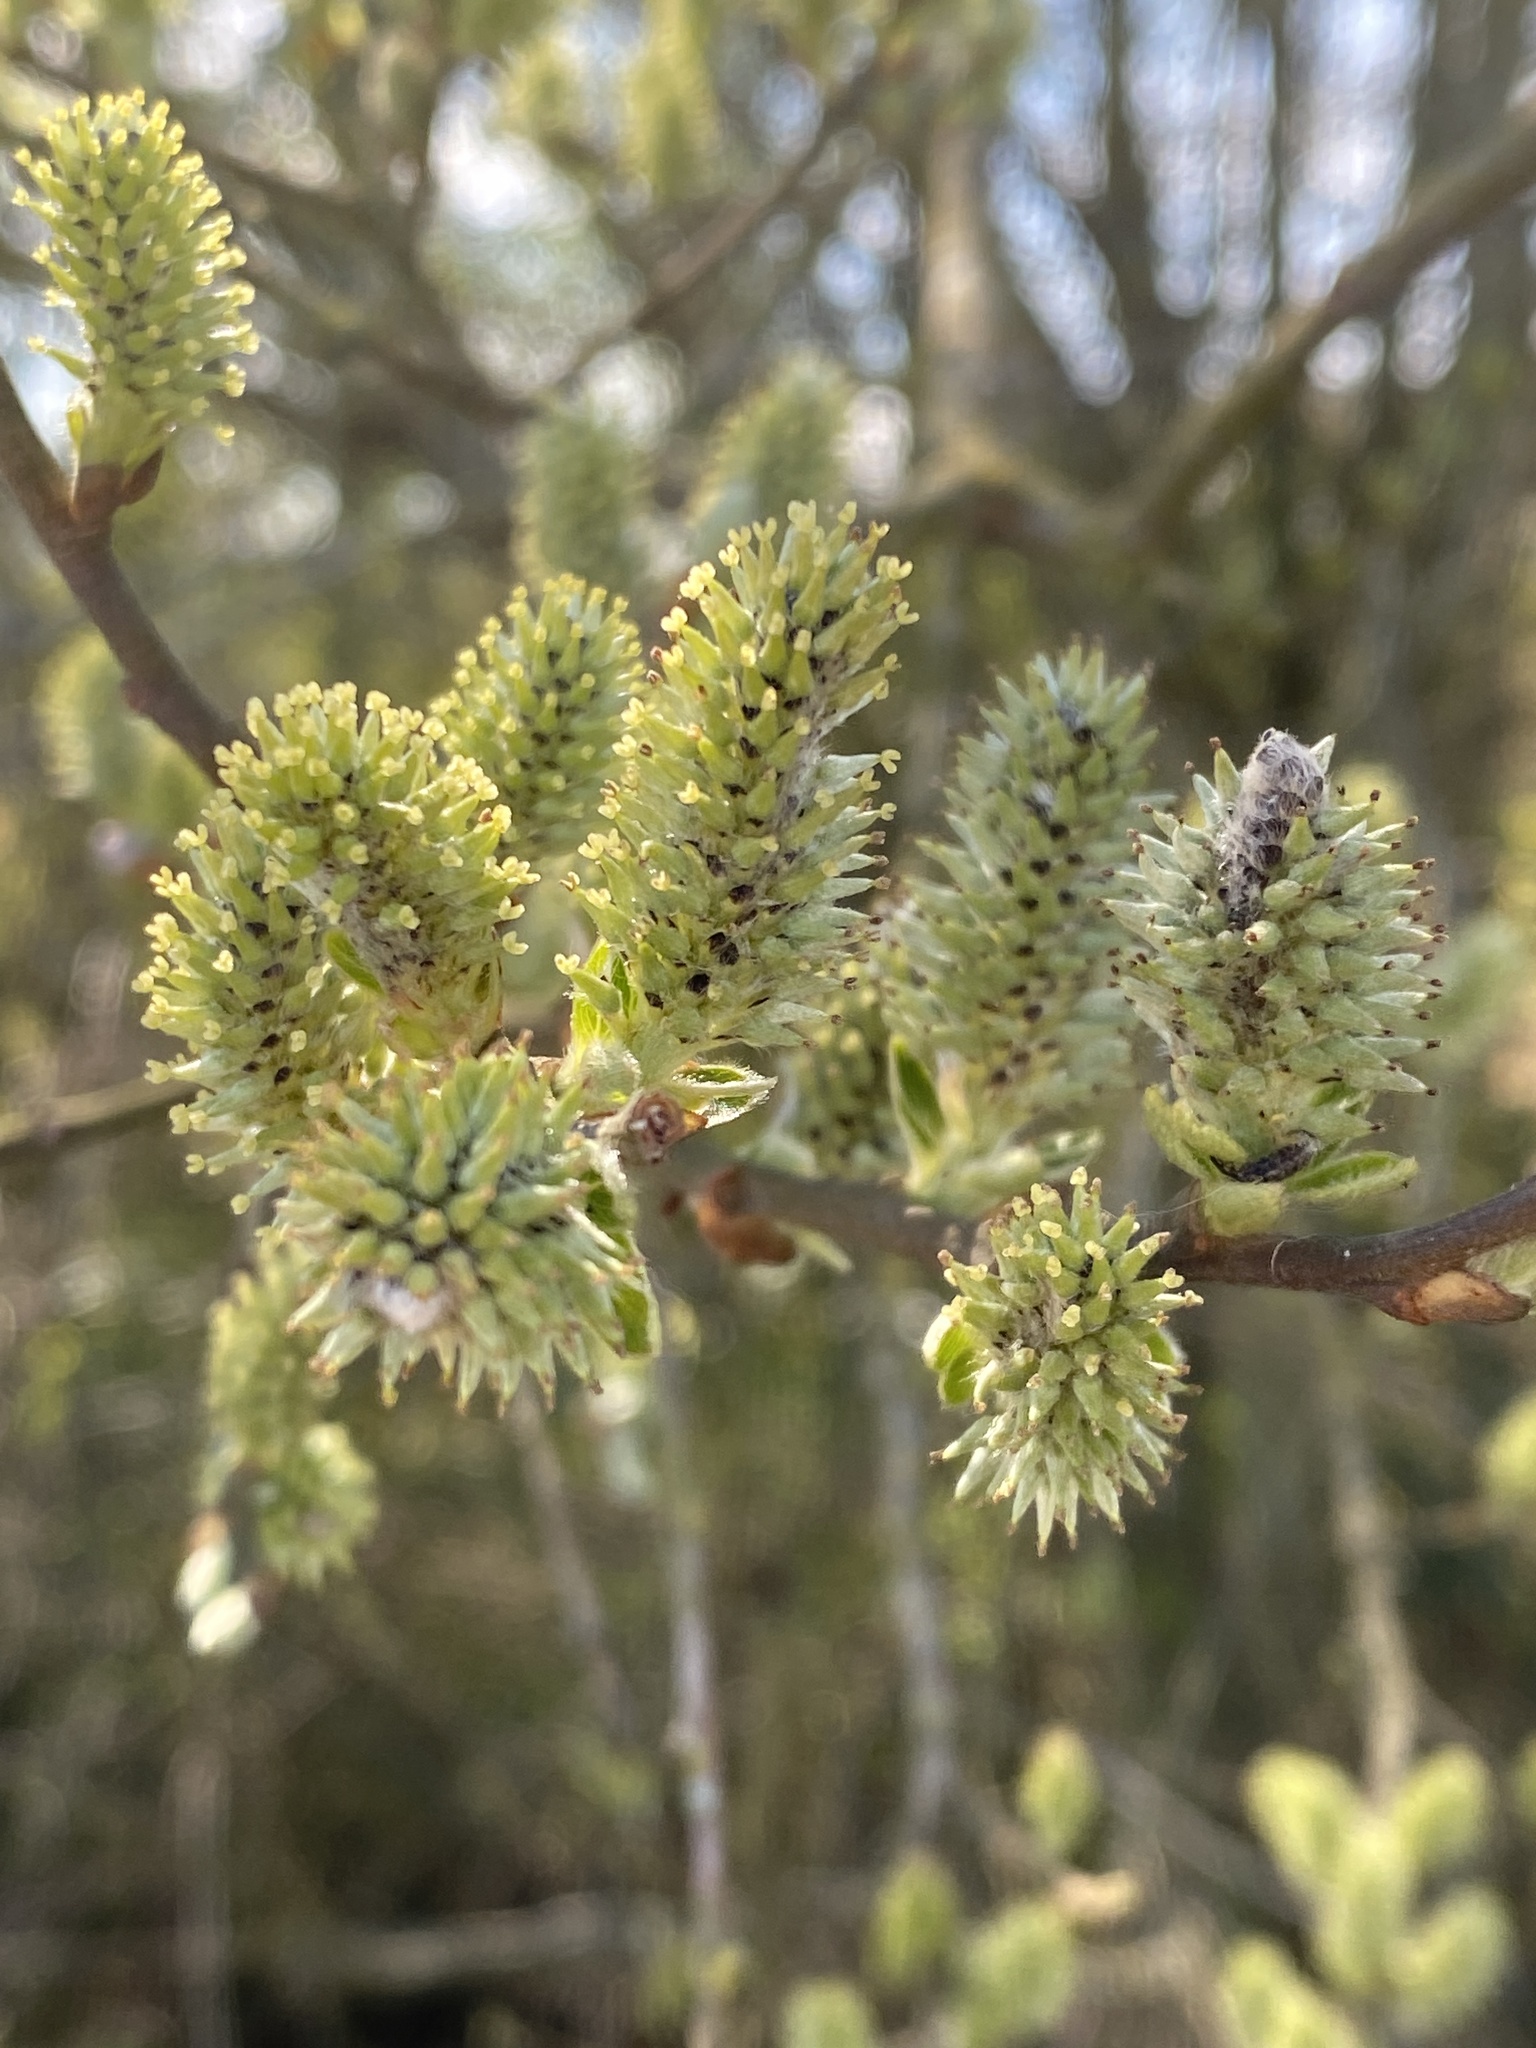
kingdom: Plantae
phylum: Tracheophyta
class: Magnoliopsida
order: Malpighiales
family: Salicaceae
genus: Salix
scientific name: Salix cinerea
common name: Common sallow
